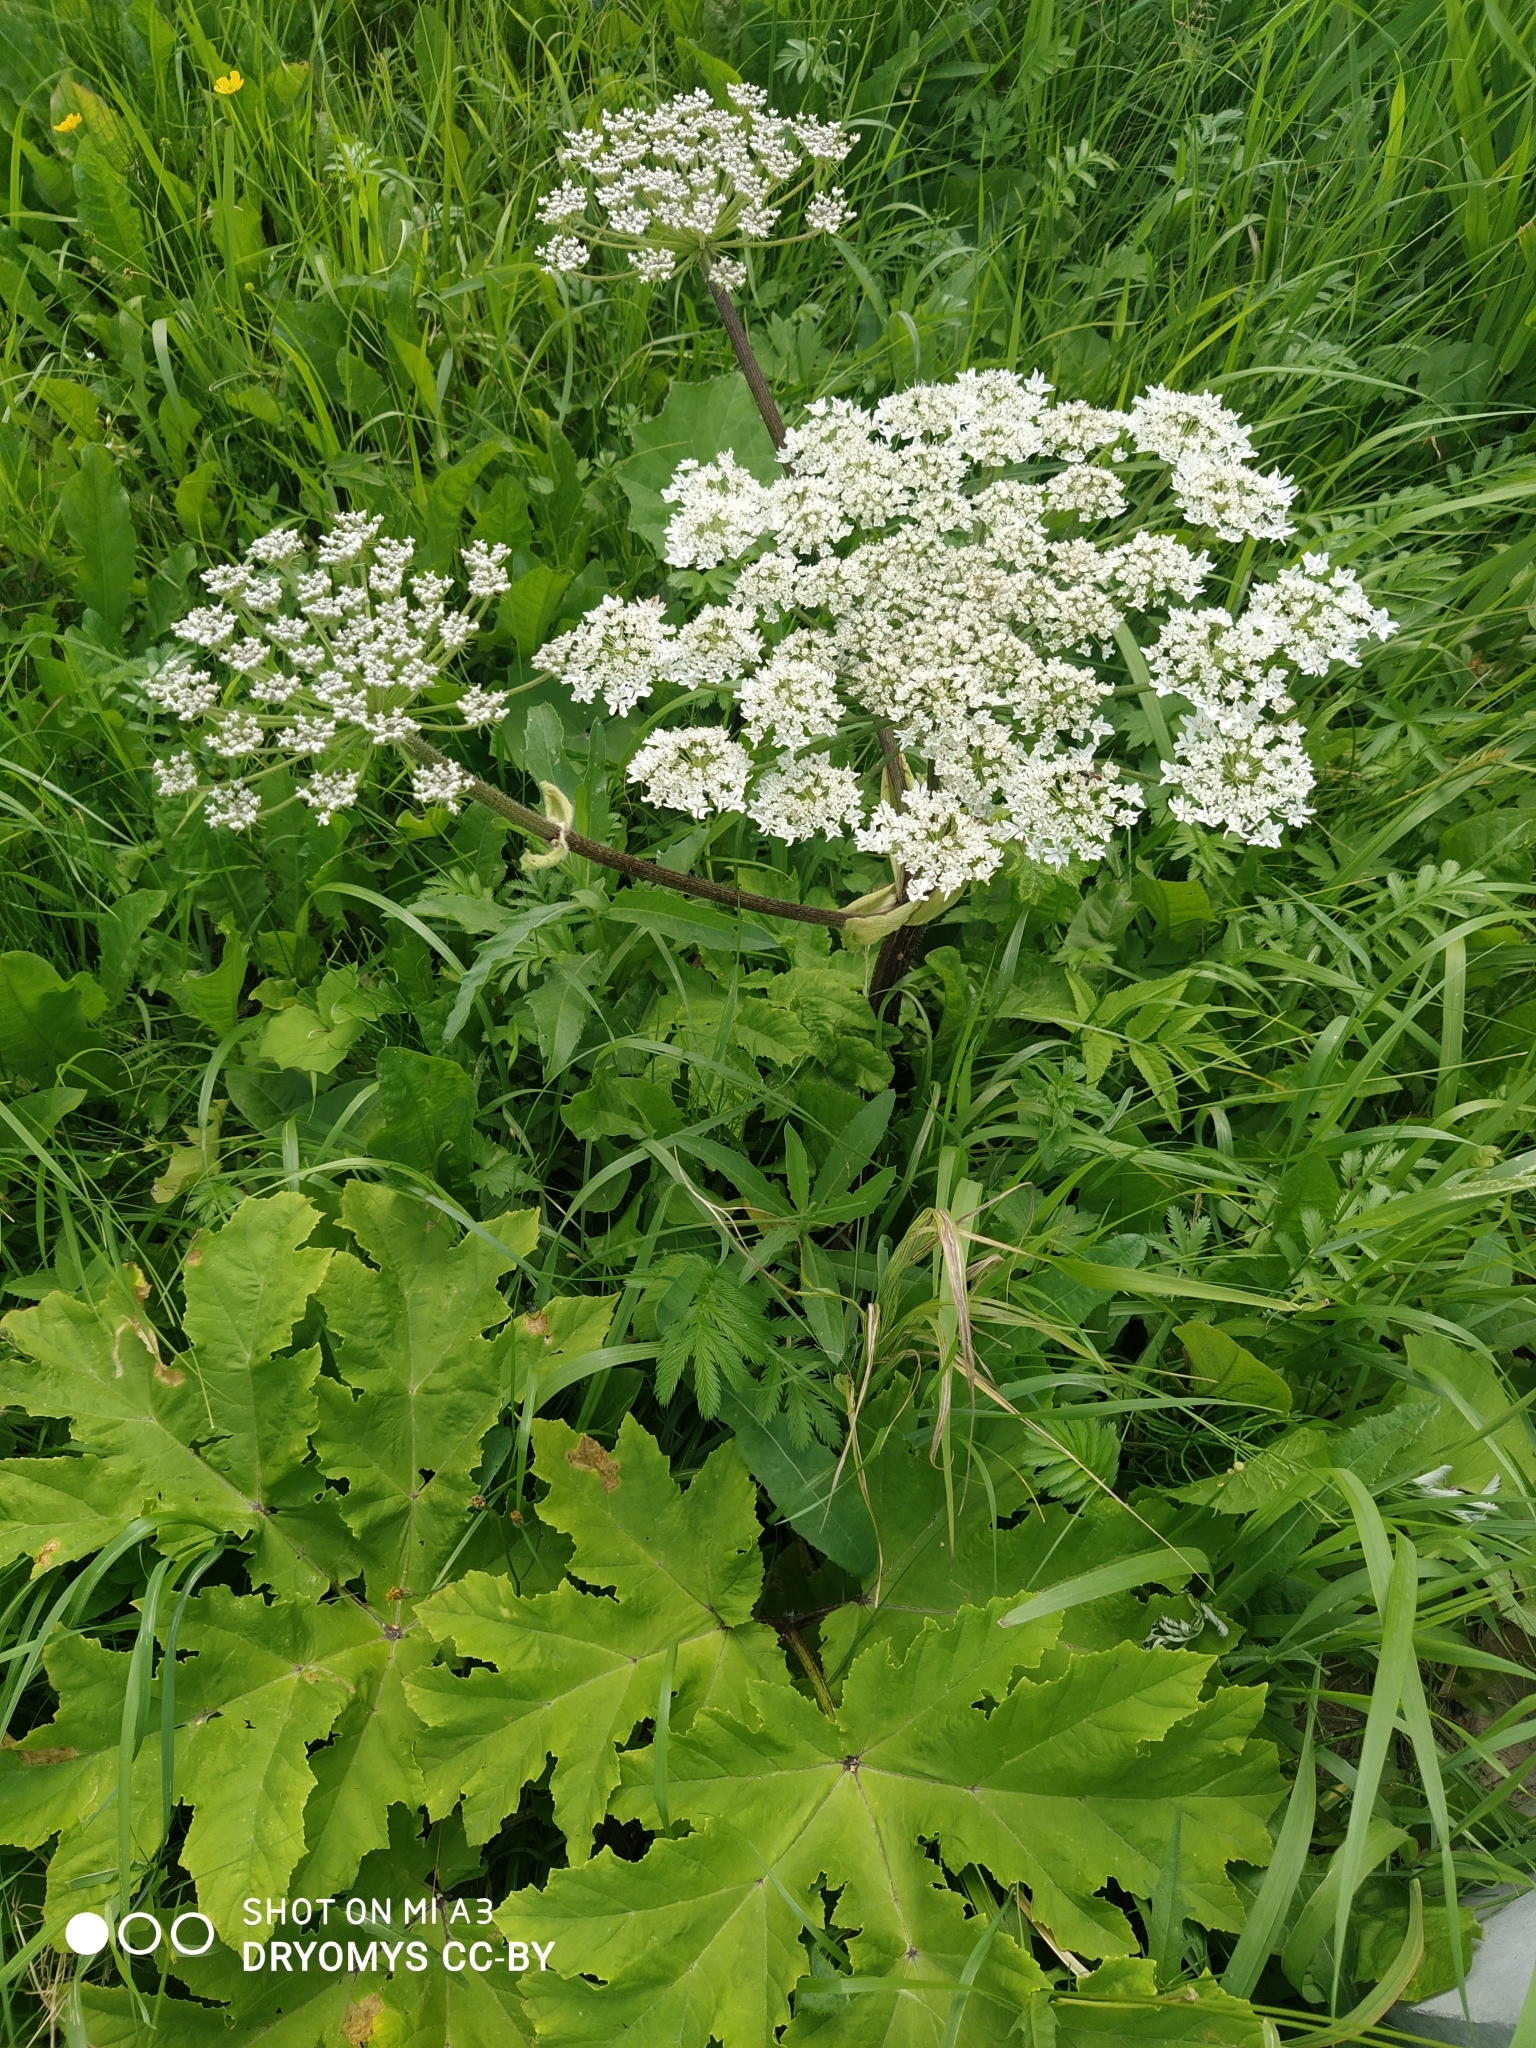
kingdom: Plantae
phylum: Tracheophyta
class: Magnoliopsida
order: Apiales
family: Apiaceae
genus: Heracleum
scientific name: Heracleum sosnowskyi
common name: Sosnowsky's hogweed
